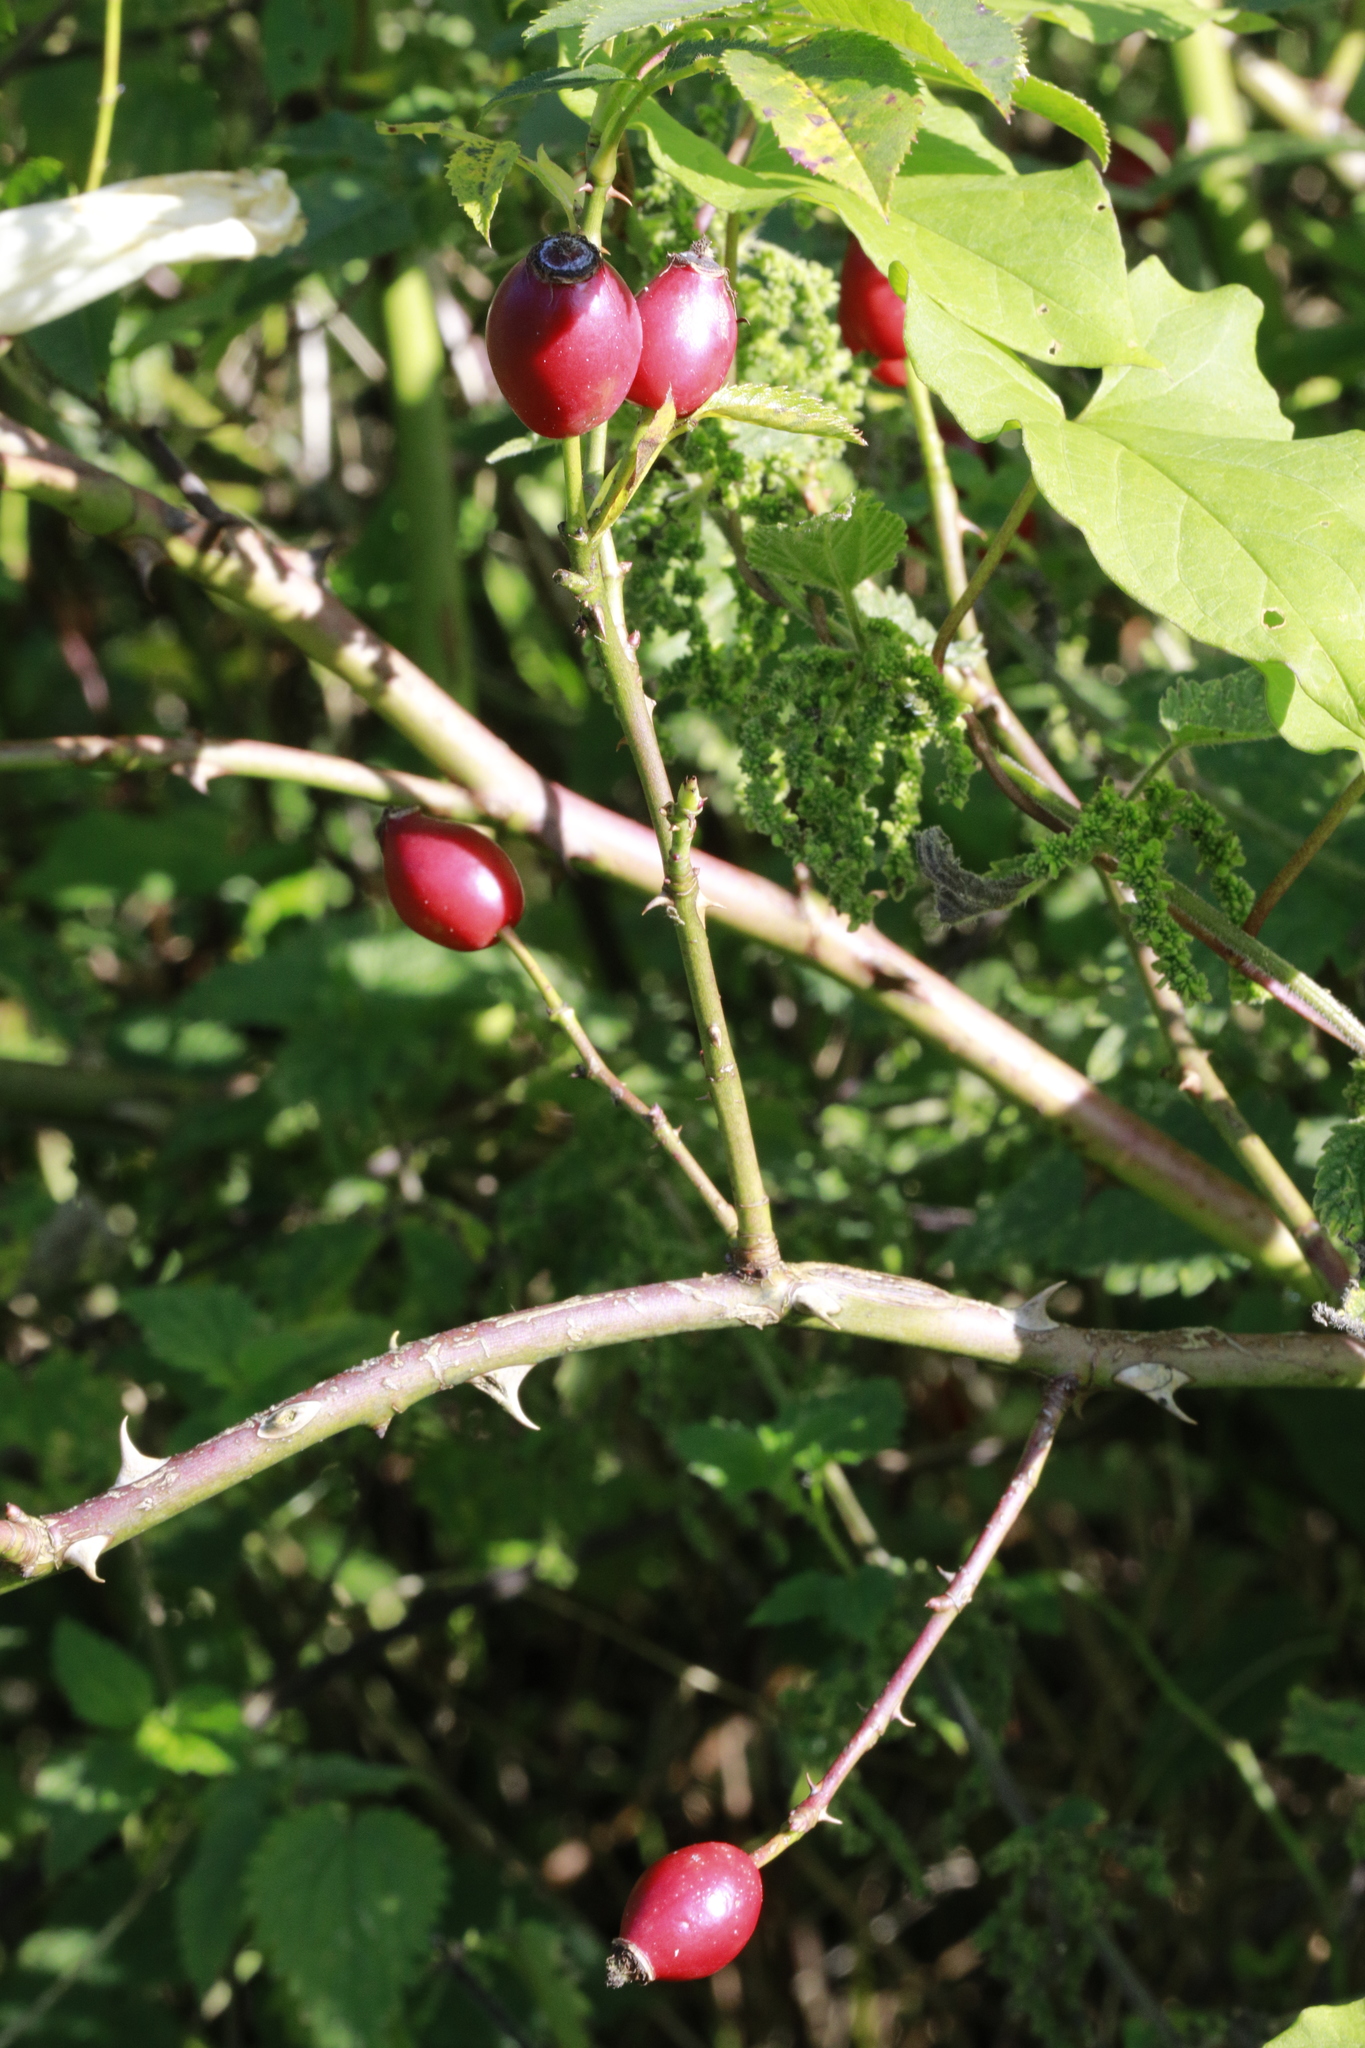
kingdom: Plantae
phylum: Tracheophyta
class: Magnoliopsida
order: Rosales
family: Rosaceae
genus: Rosa
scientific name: Rosa canina
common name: Dog rose
